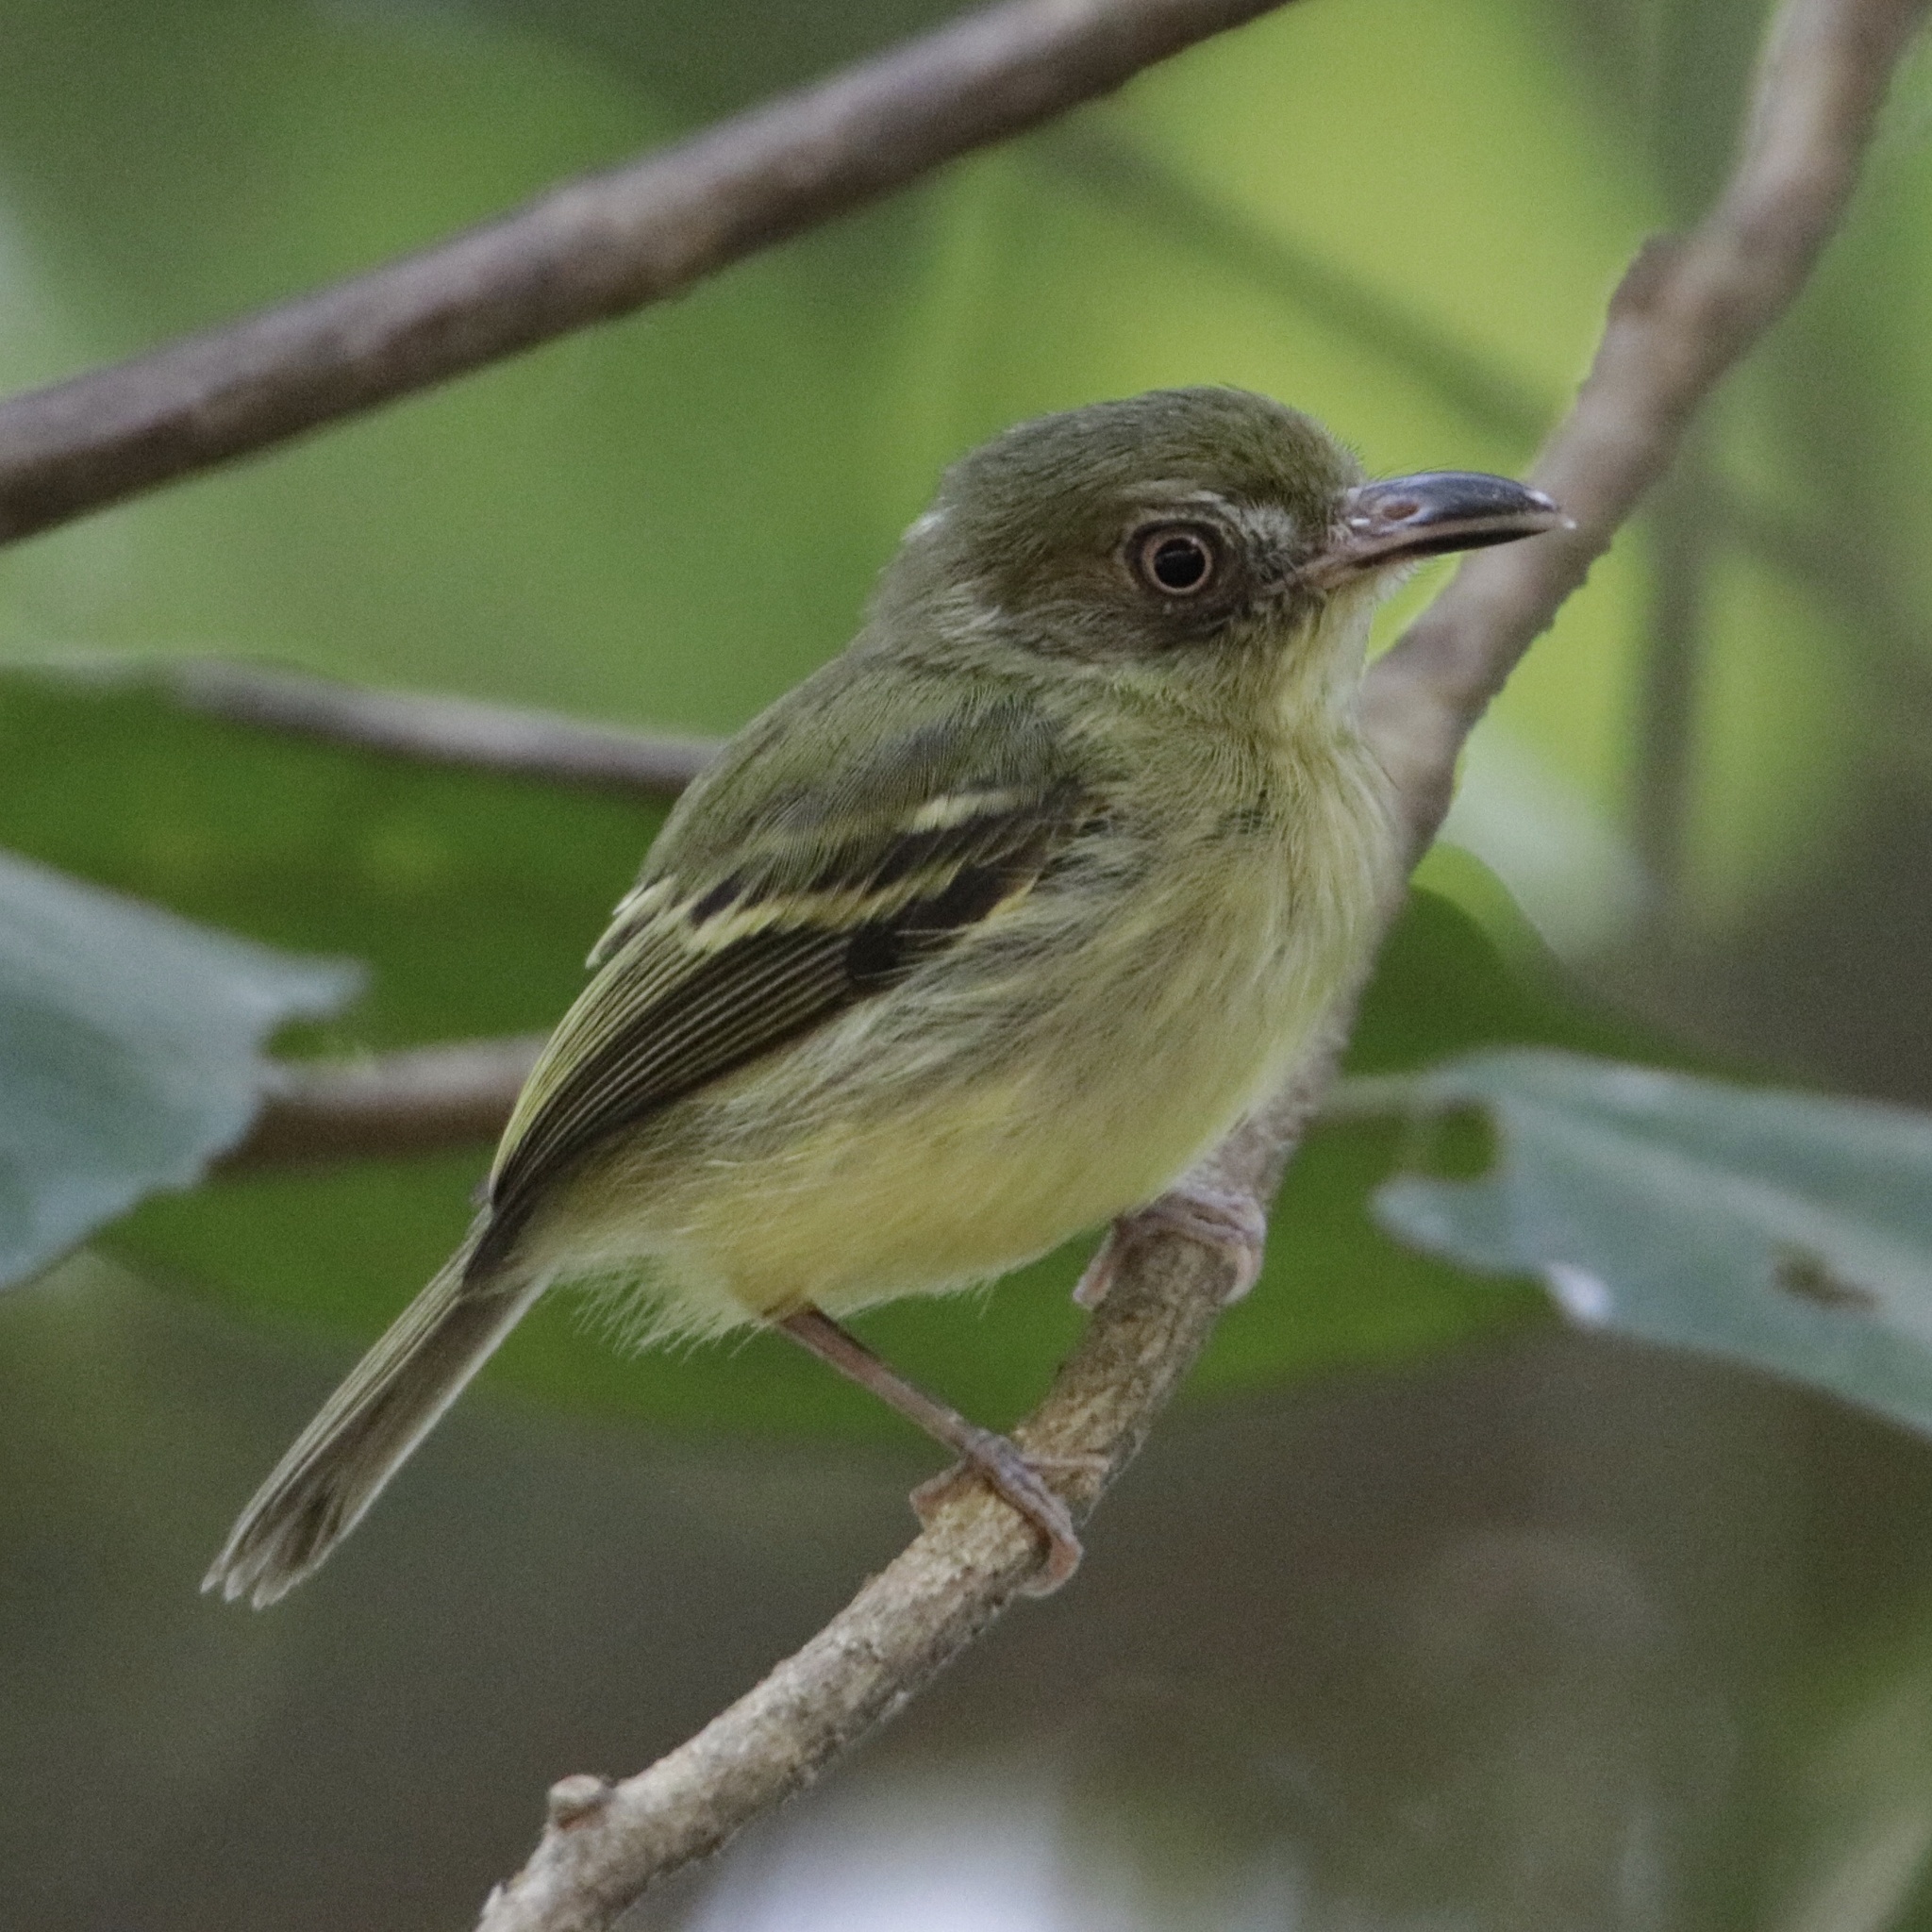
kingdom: Animalia
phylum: Chordata
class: Aves
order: Passeriformes
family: Tyrannidae
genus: Oncostoma
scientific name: Oncostoma olivaceum
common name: Southern bentbill
